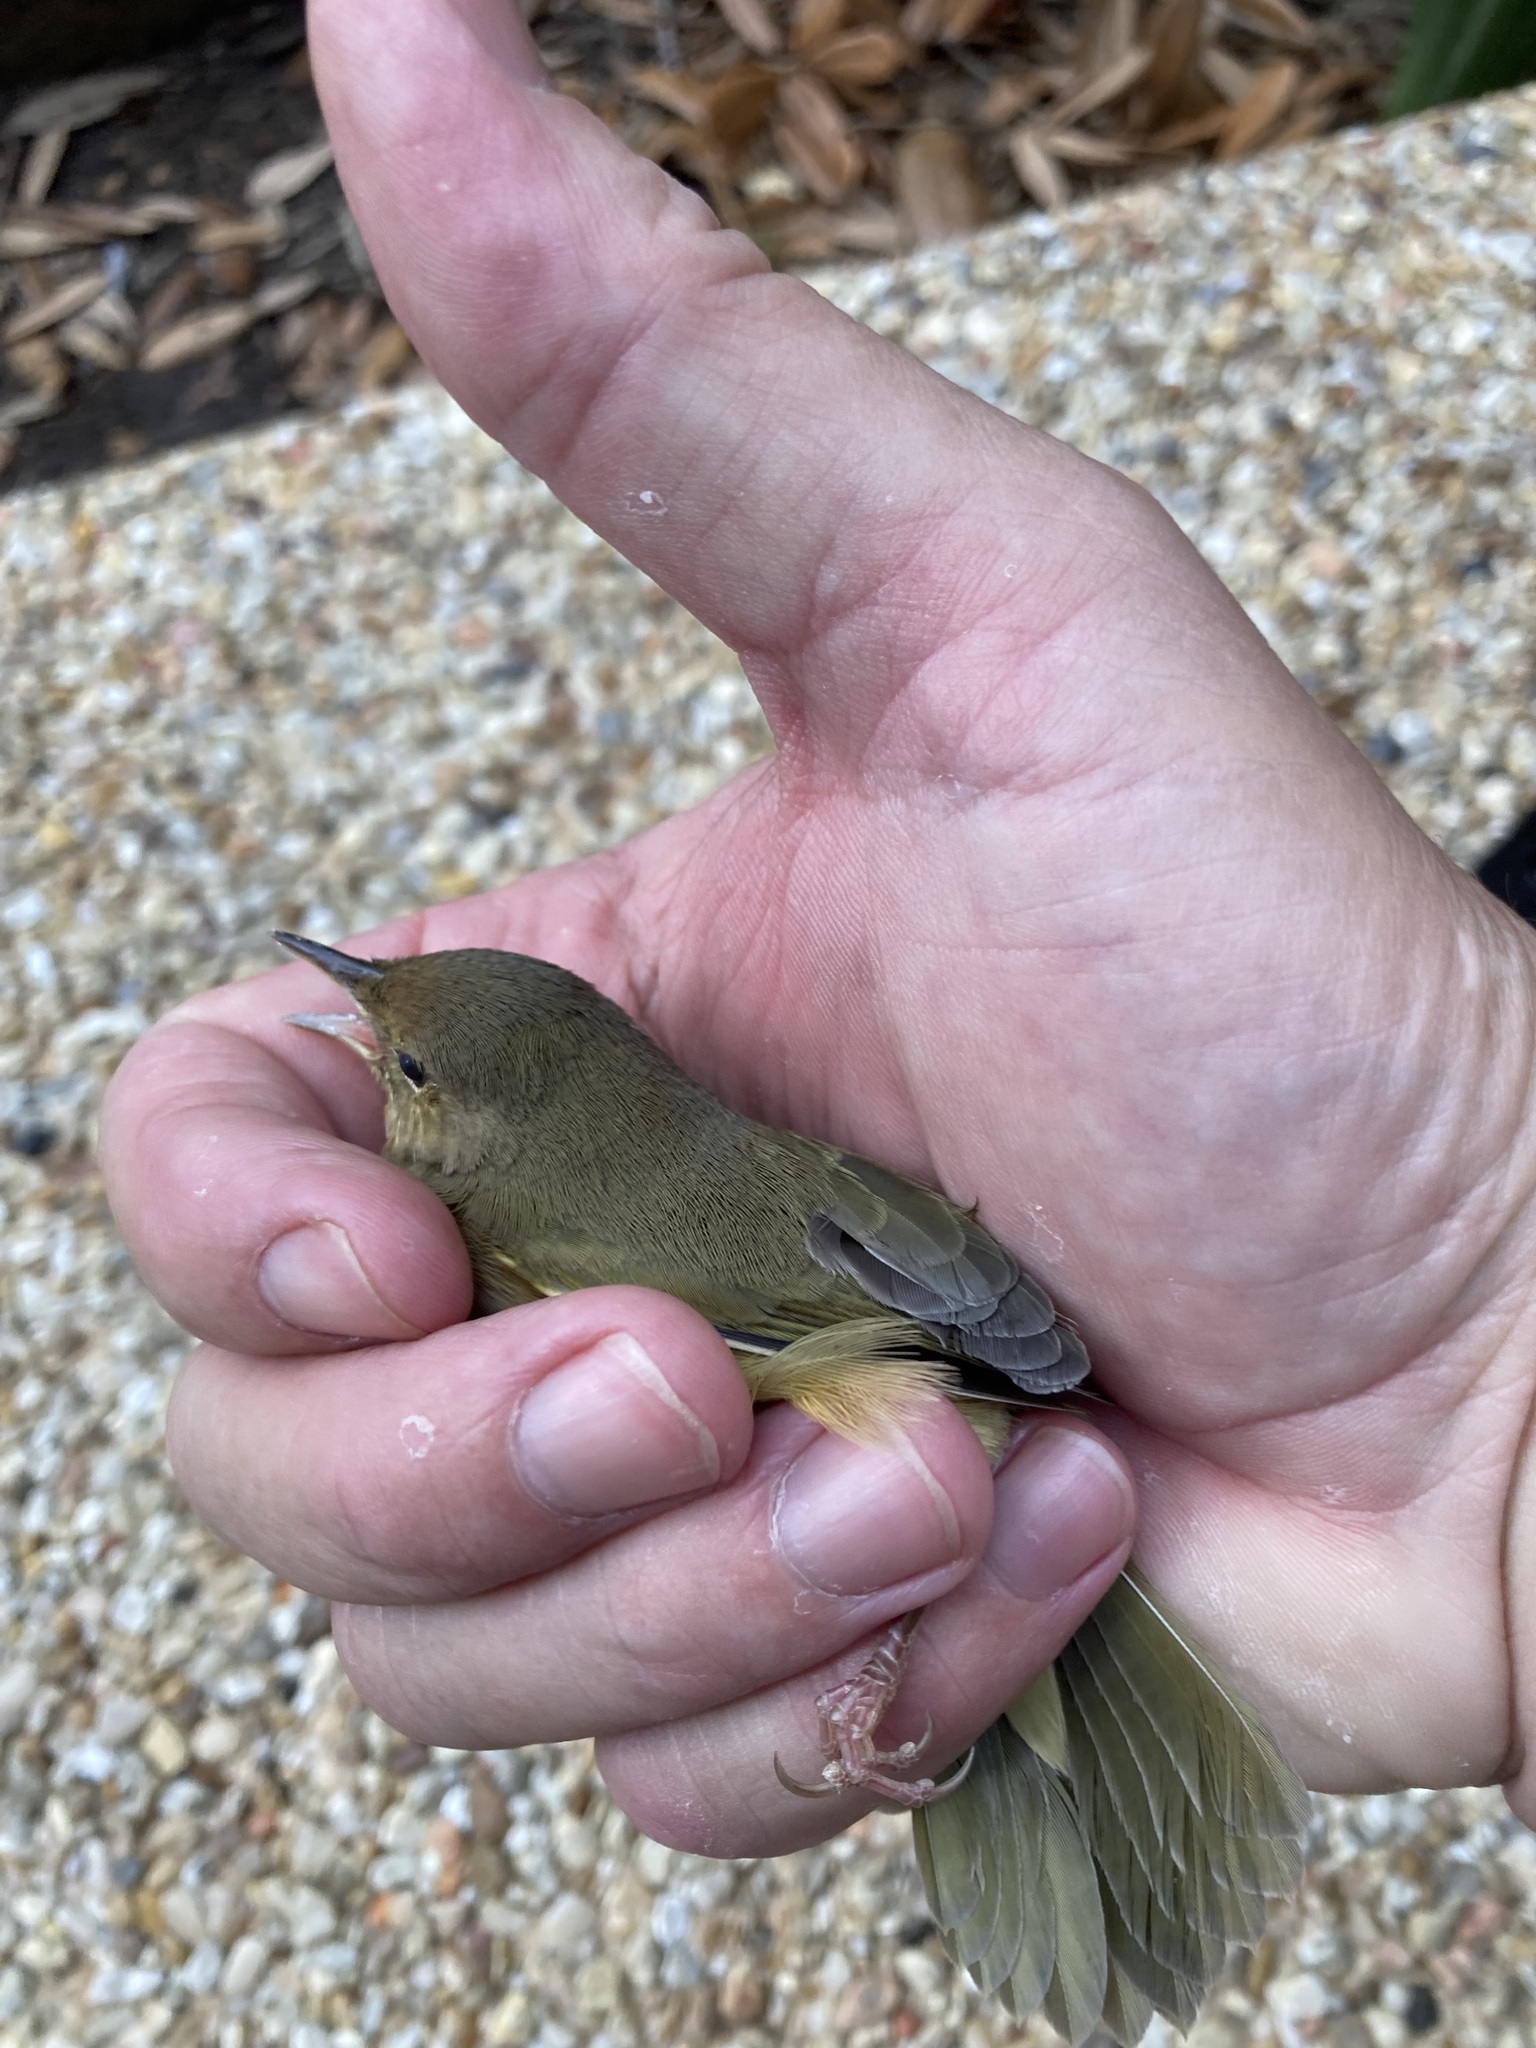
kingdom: Animalia
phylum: Chordata
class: Aves
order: Passeriformes
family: Parulidae
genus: Geothlypis
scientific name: Geothlypis trichas
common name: Common yellowthroat
